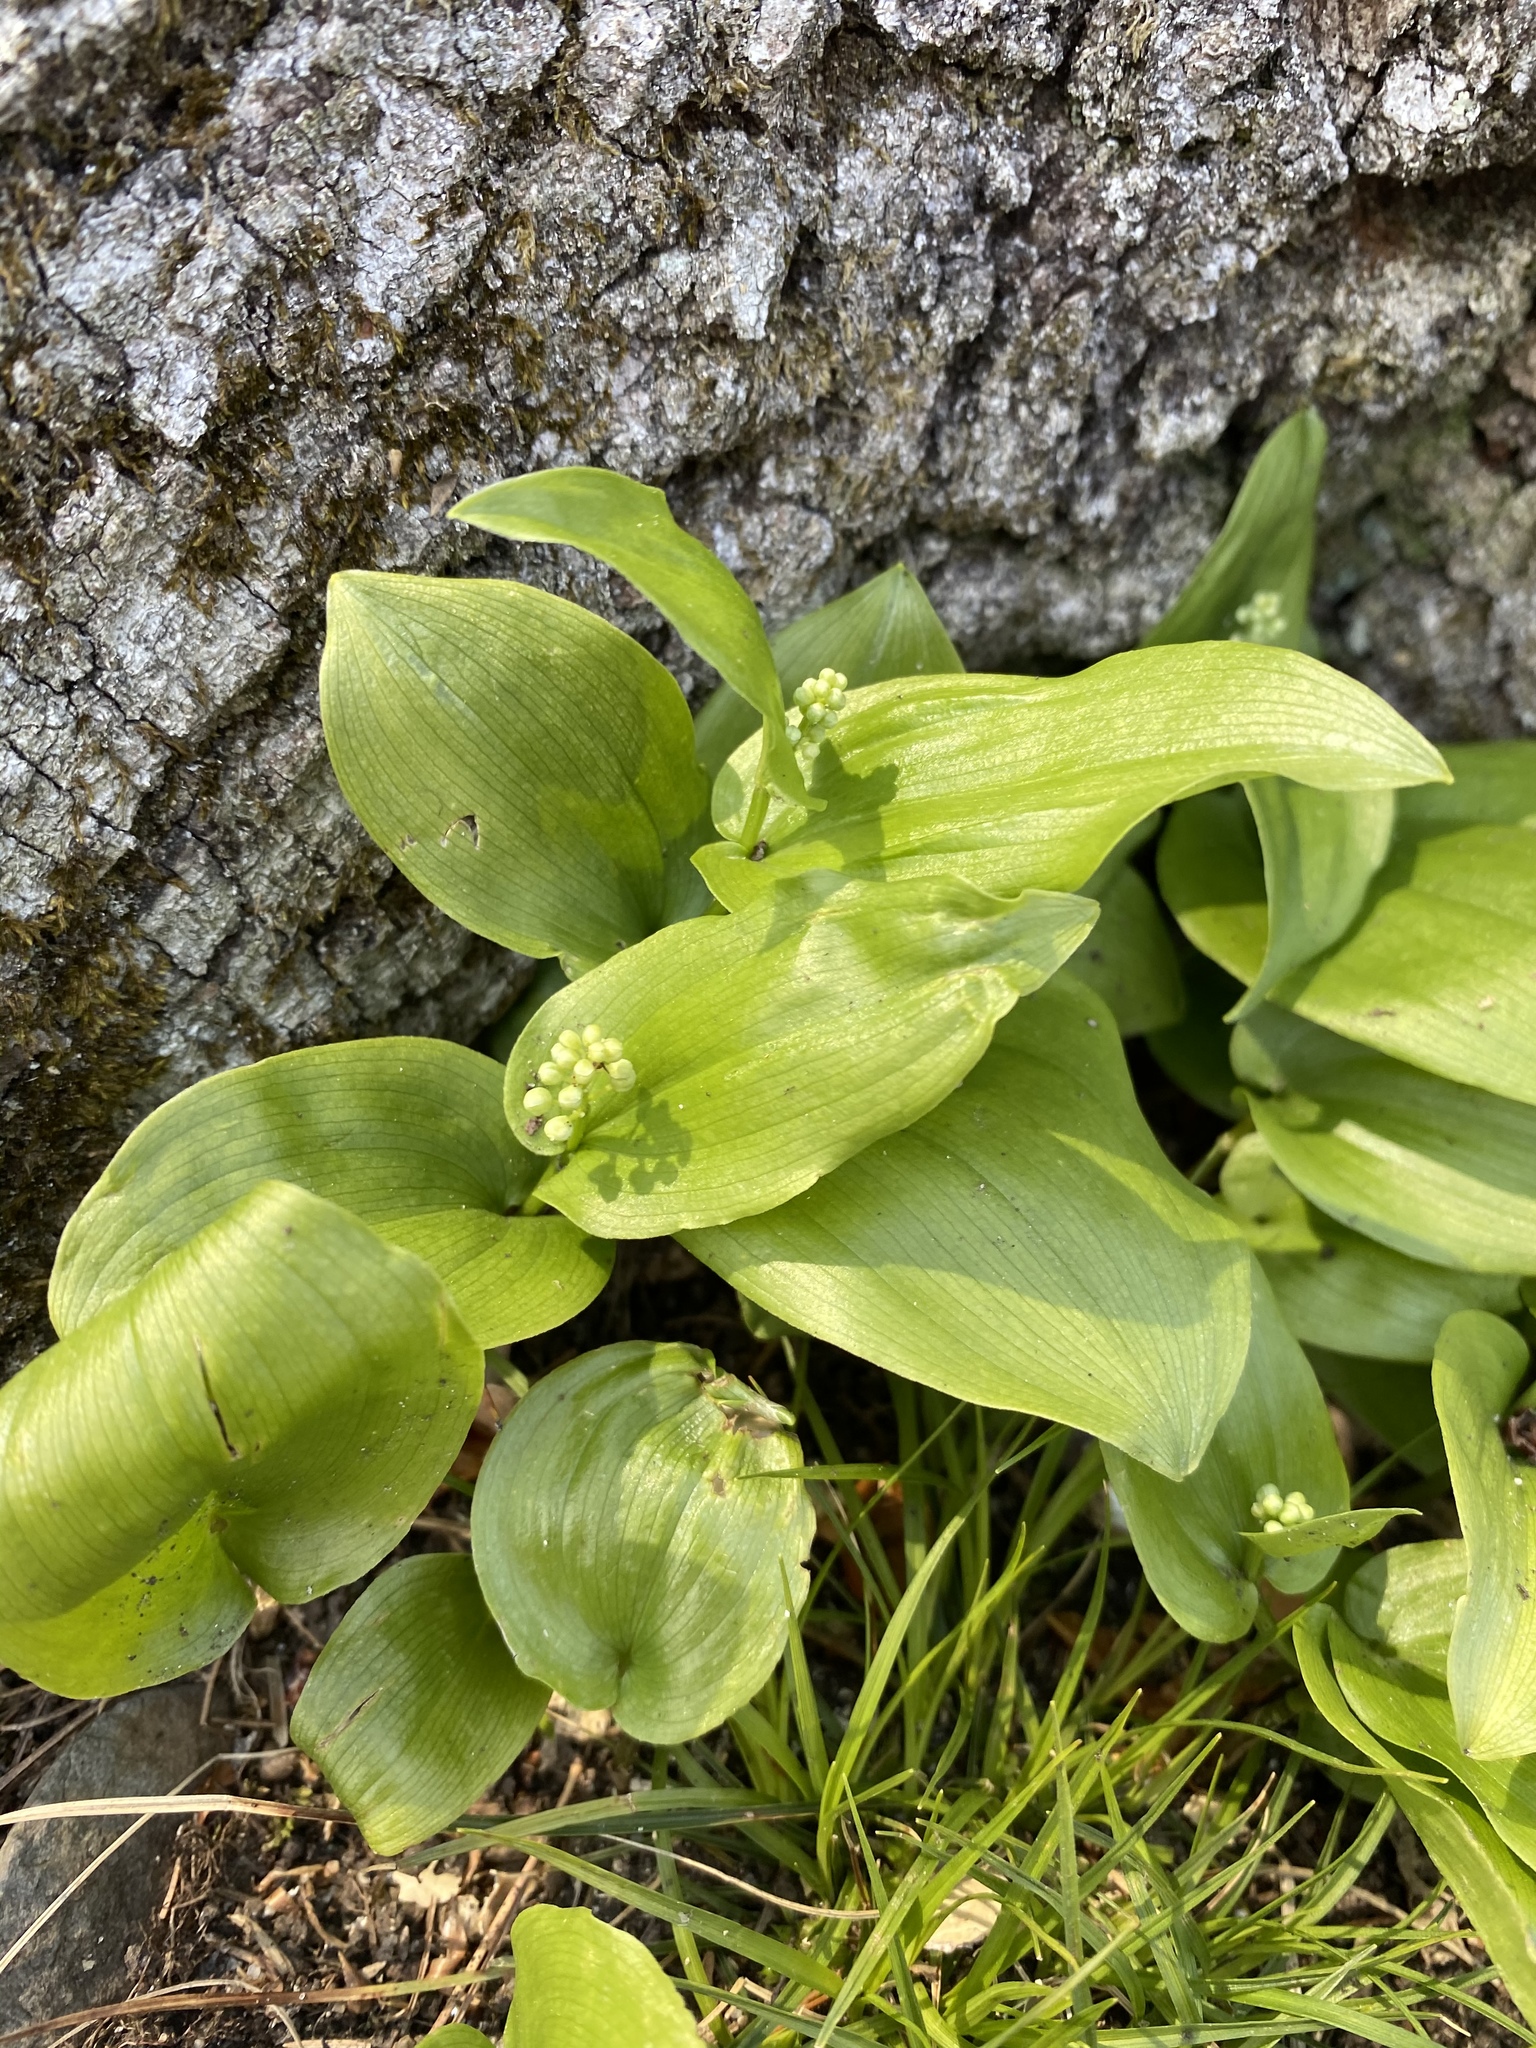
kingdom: Plantae
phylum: Tracheophyta
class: Liliopsida
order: Asparagales
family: Asparagaceae
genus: Maianthemum
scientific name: Maianthemum canadense
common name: False lily-of-the-valley
